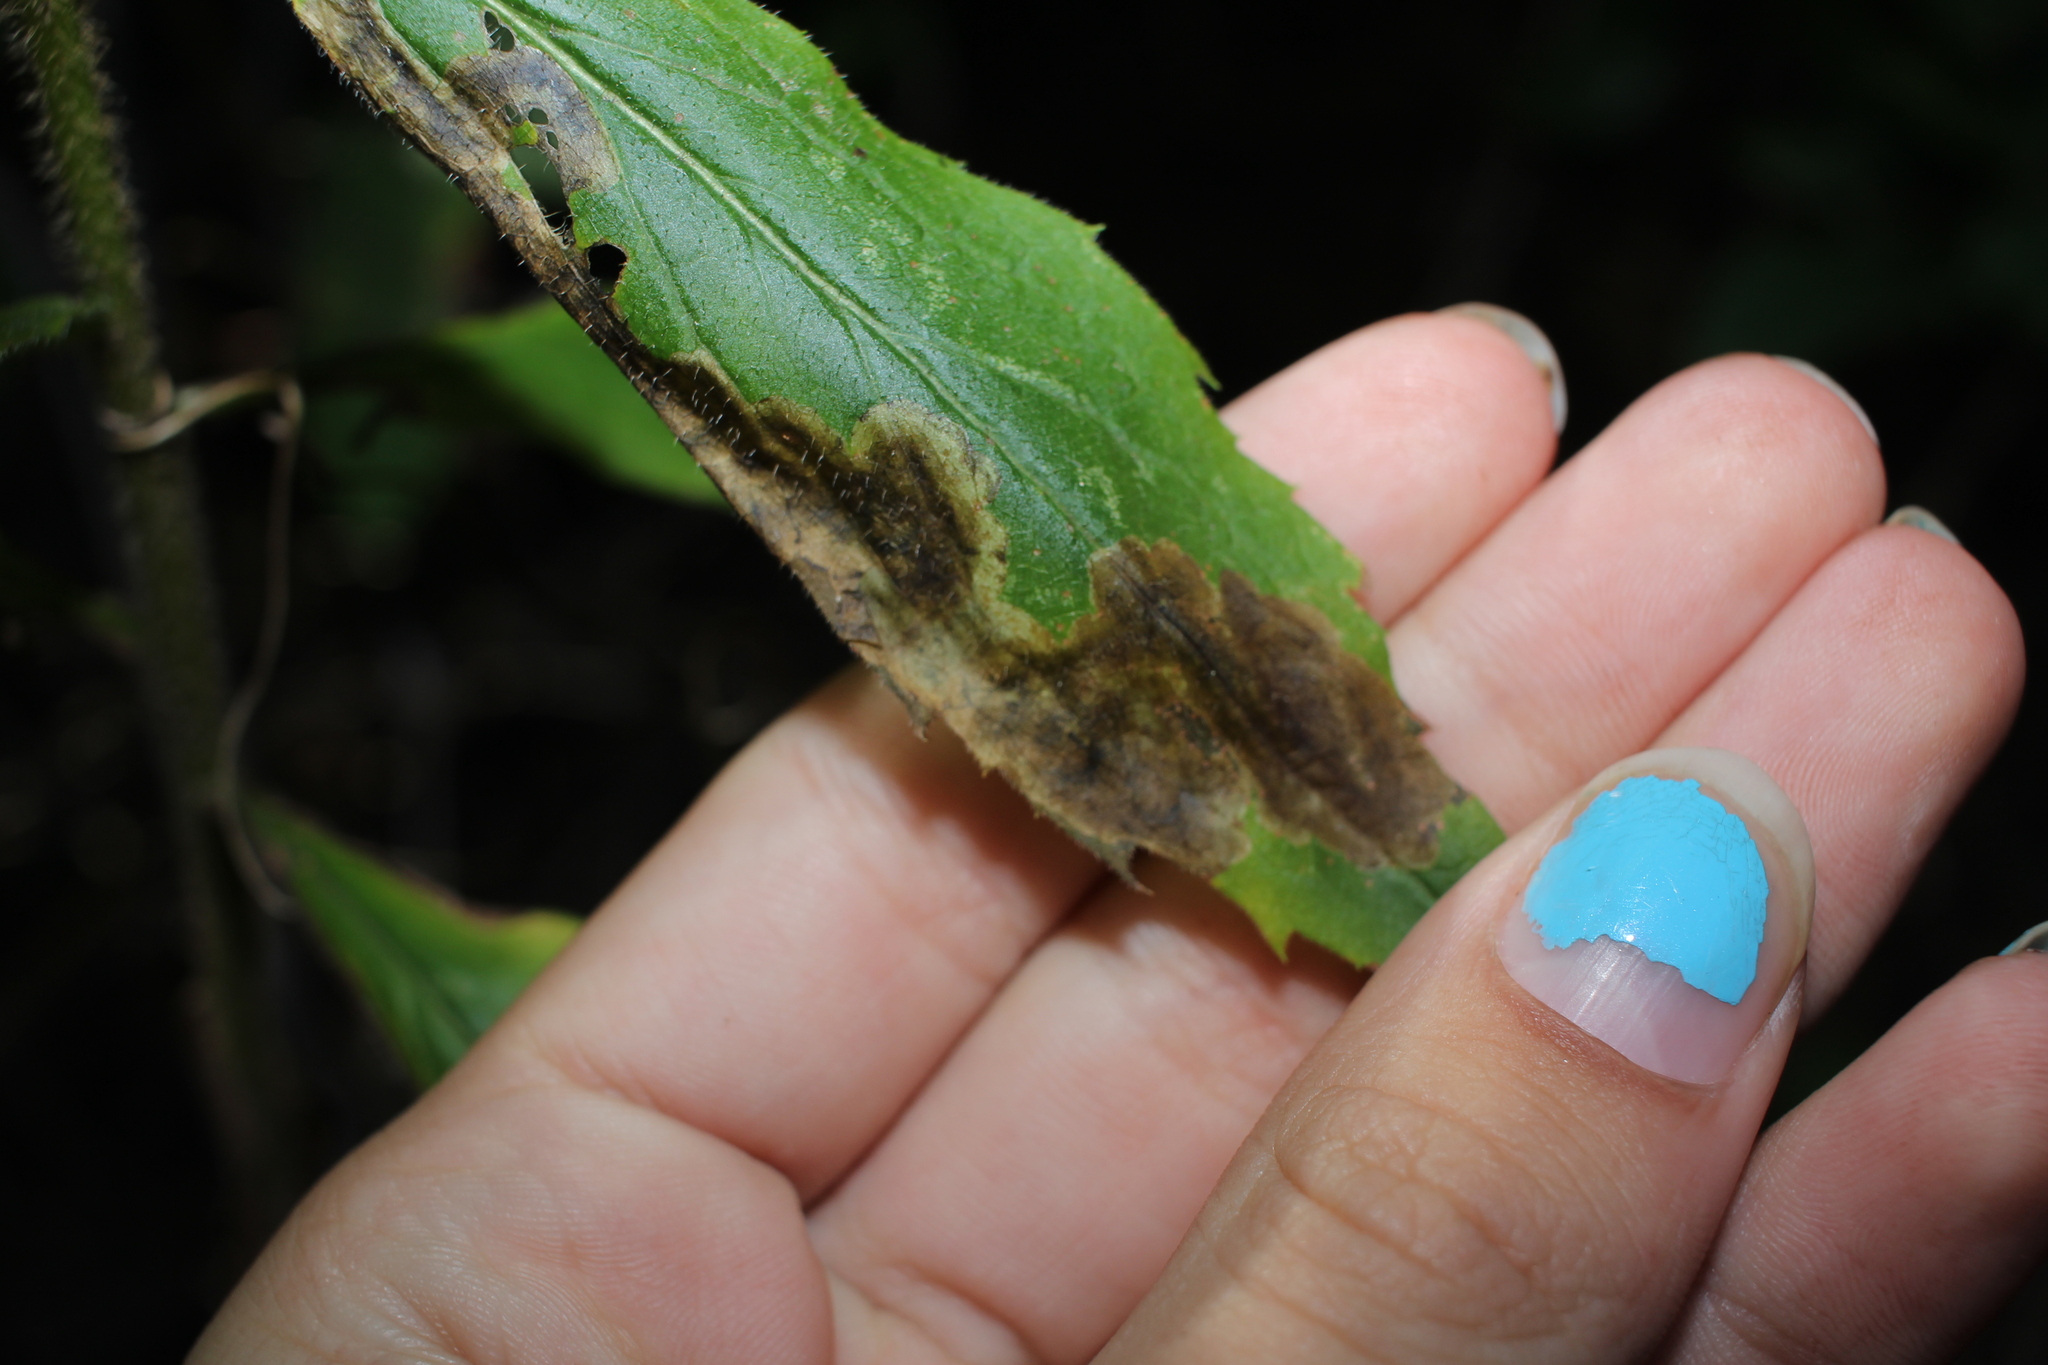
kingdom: Animalia
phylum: Arthropoda
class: Insecta
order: Diptera
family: Agromyzidae
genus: Nemorimyza
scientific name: Nemorimyza posticata
